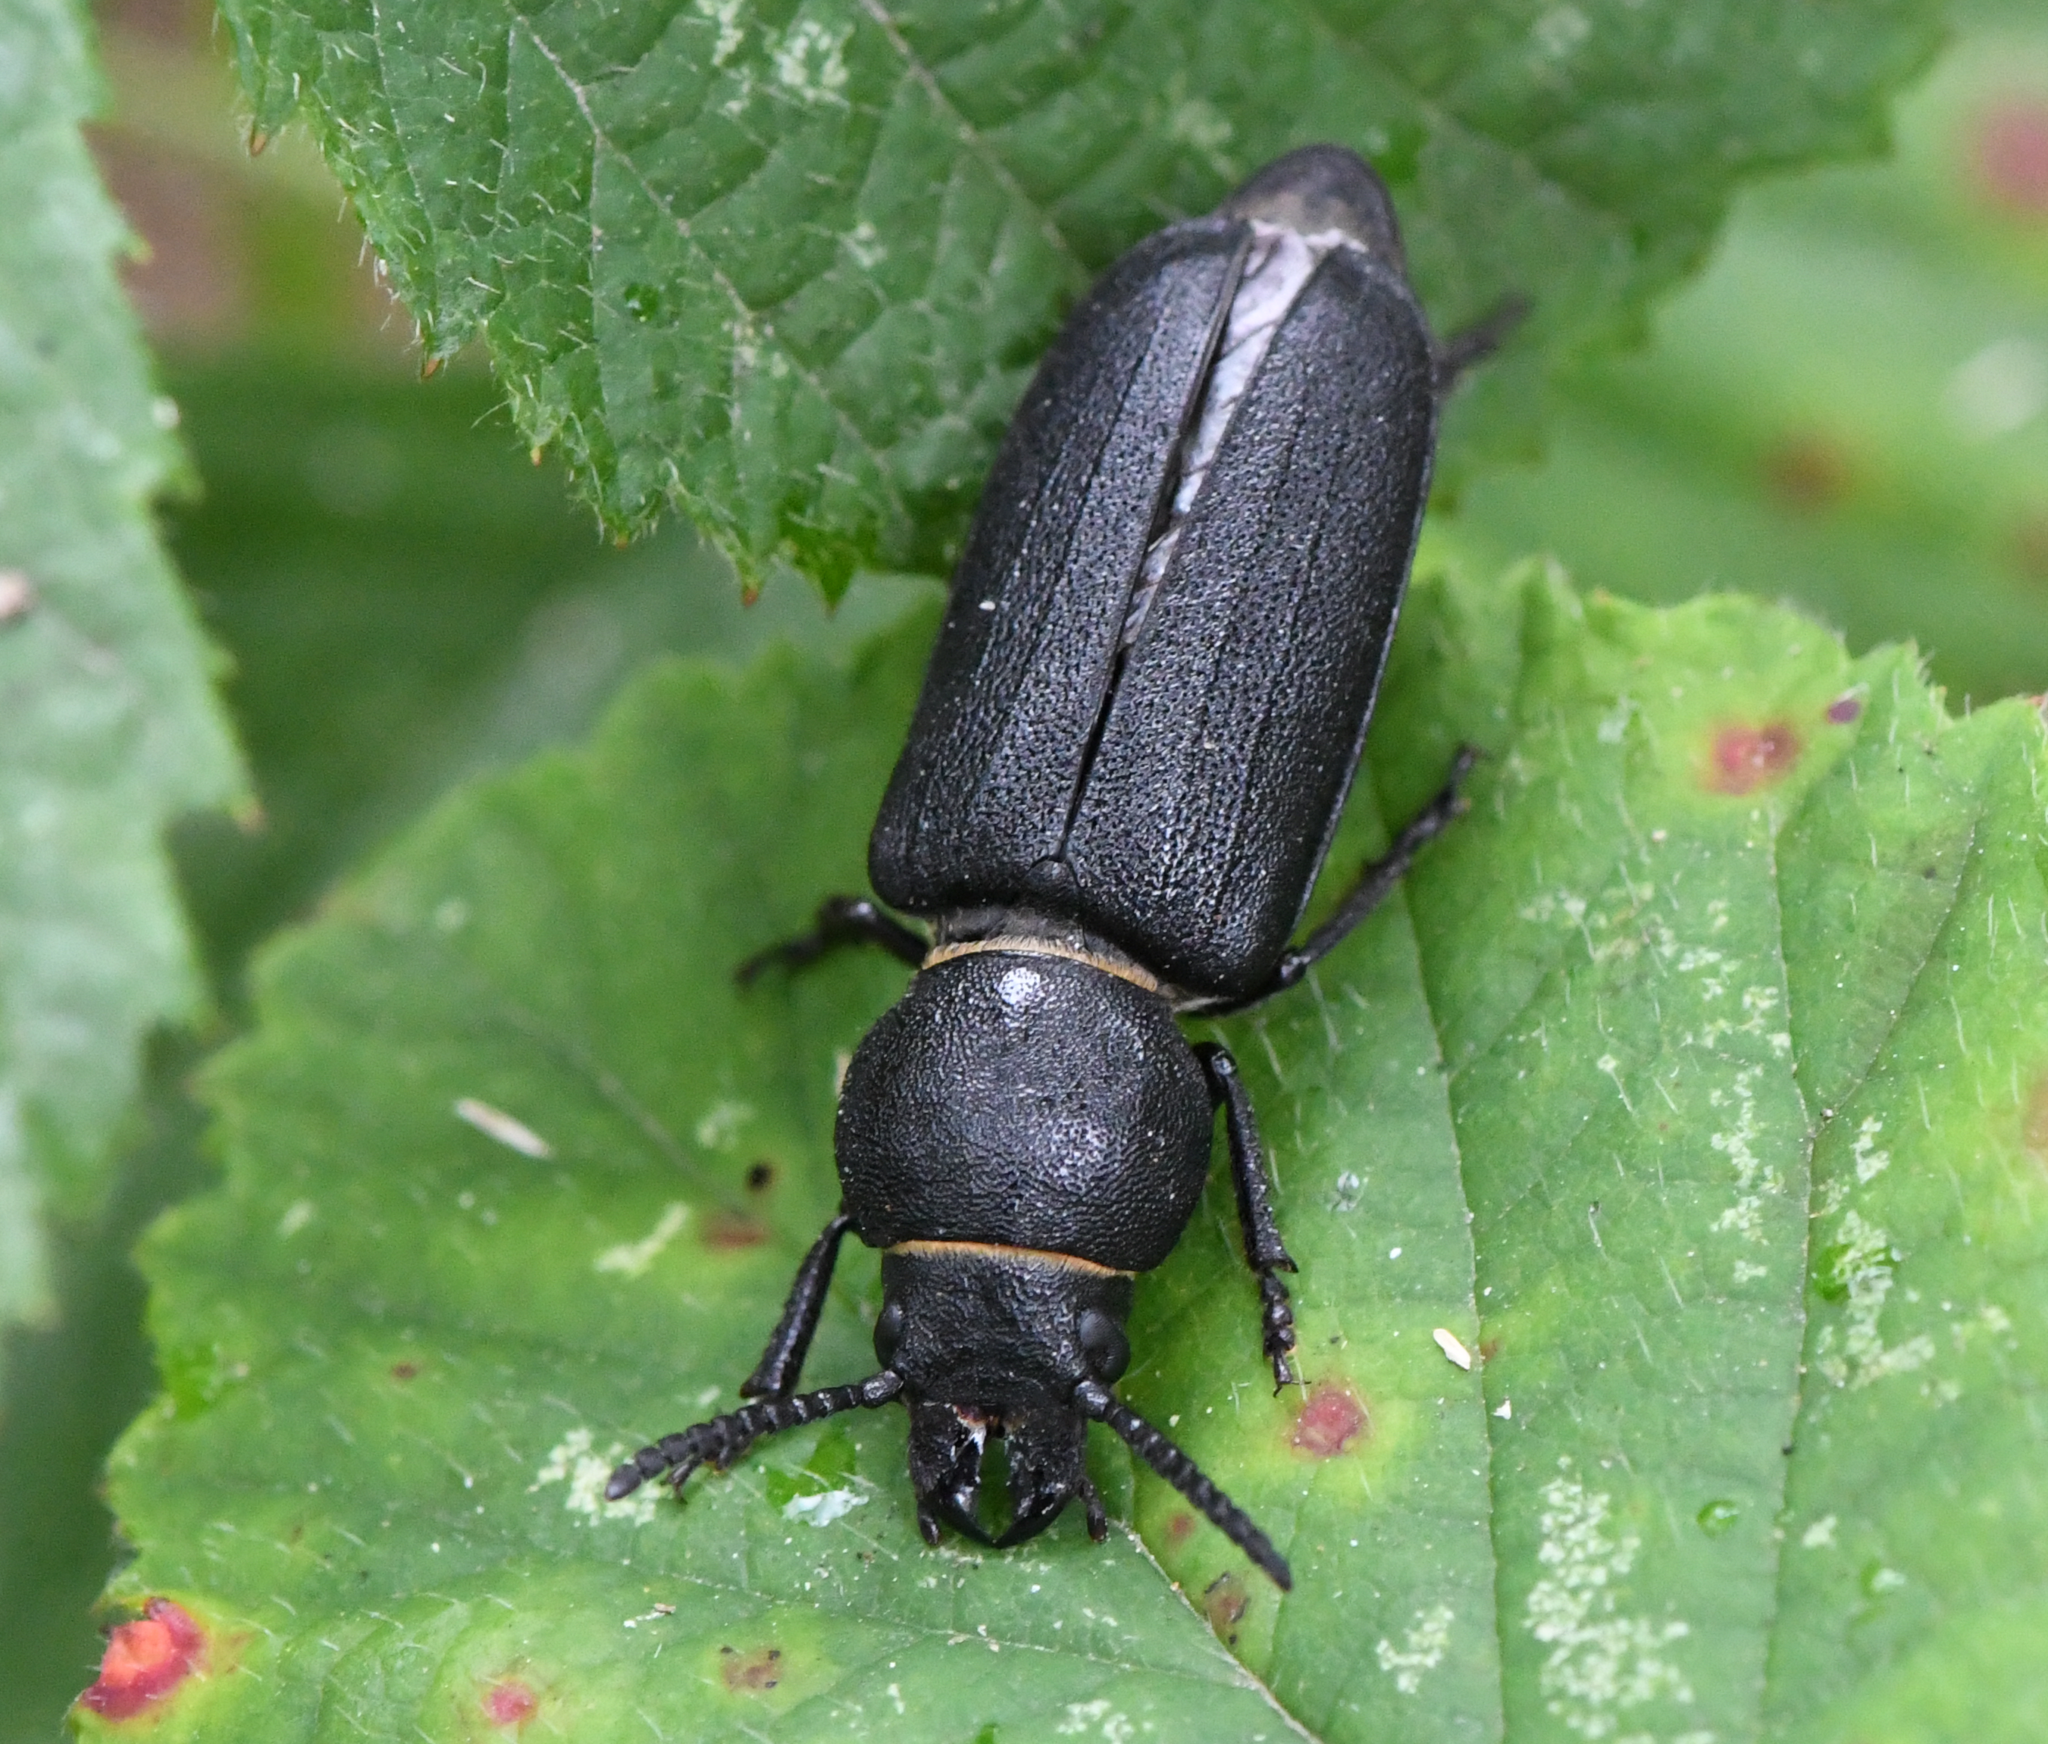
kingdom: Animalia
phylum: Arthropoda
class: Insecta
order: Coleoptera
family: Cerambycidae
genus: Spondylis
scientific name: Spondylis buprestoides
